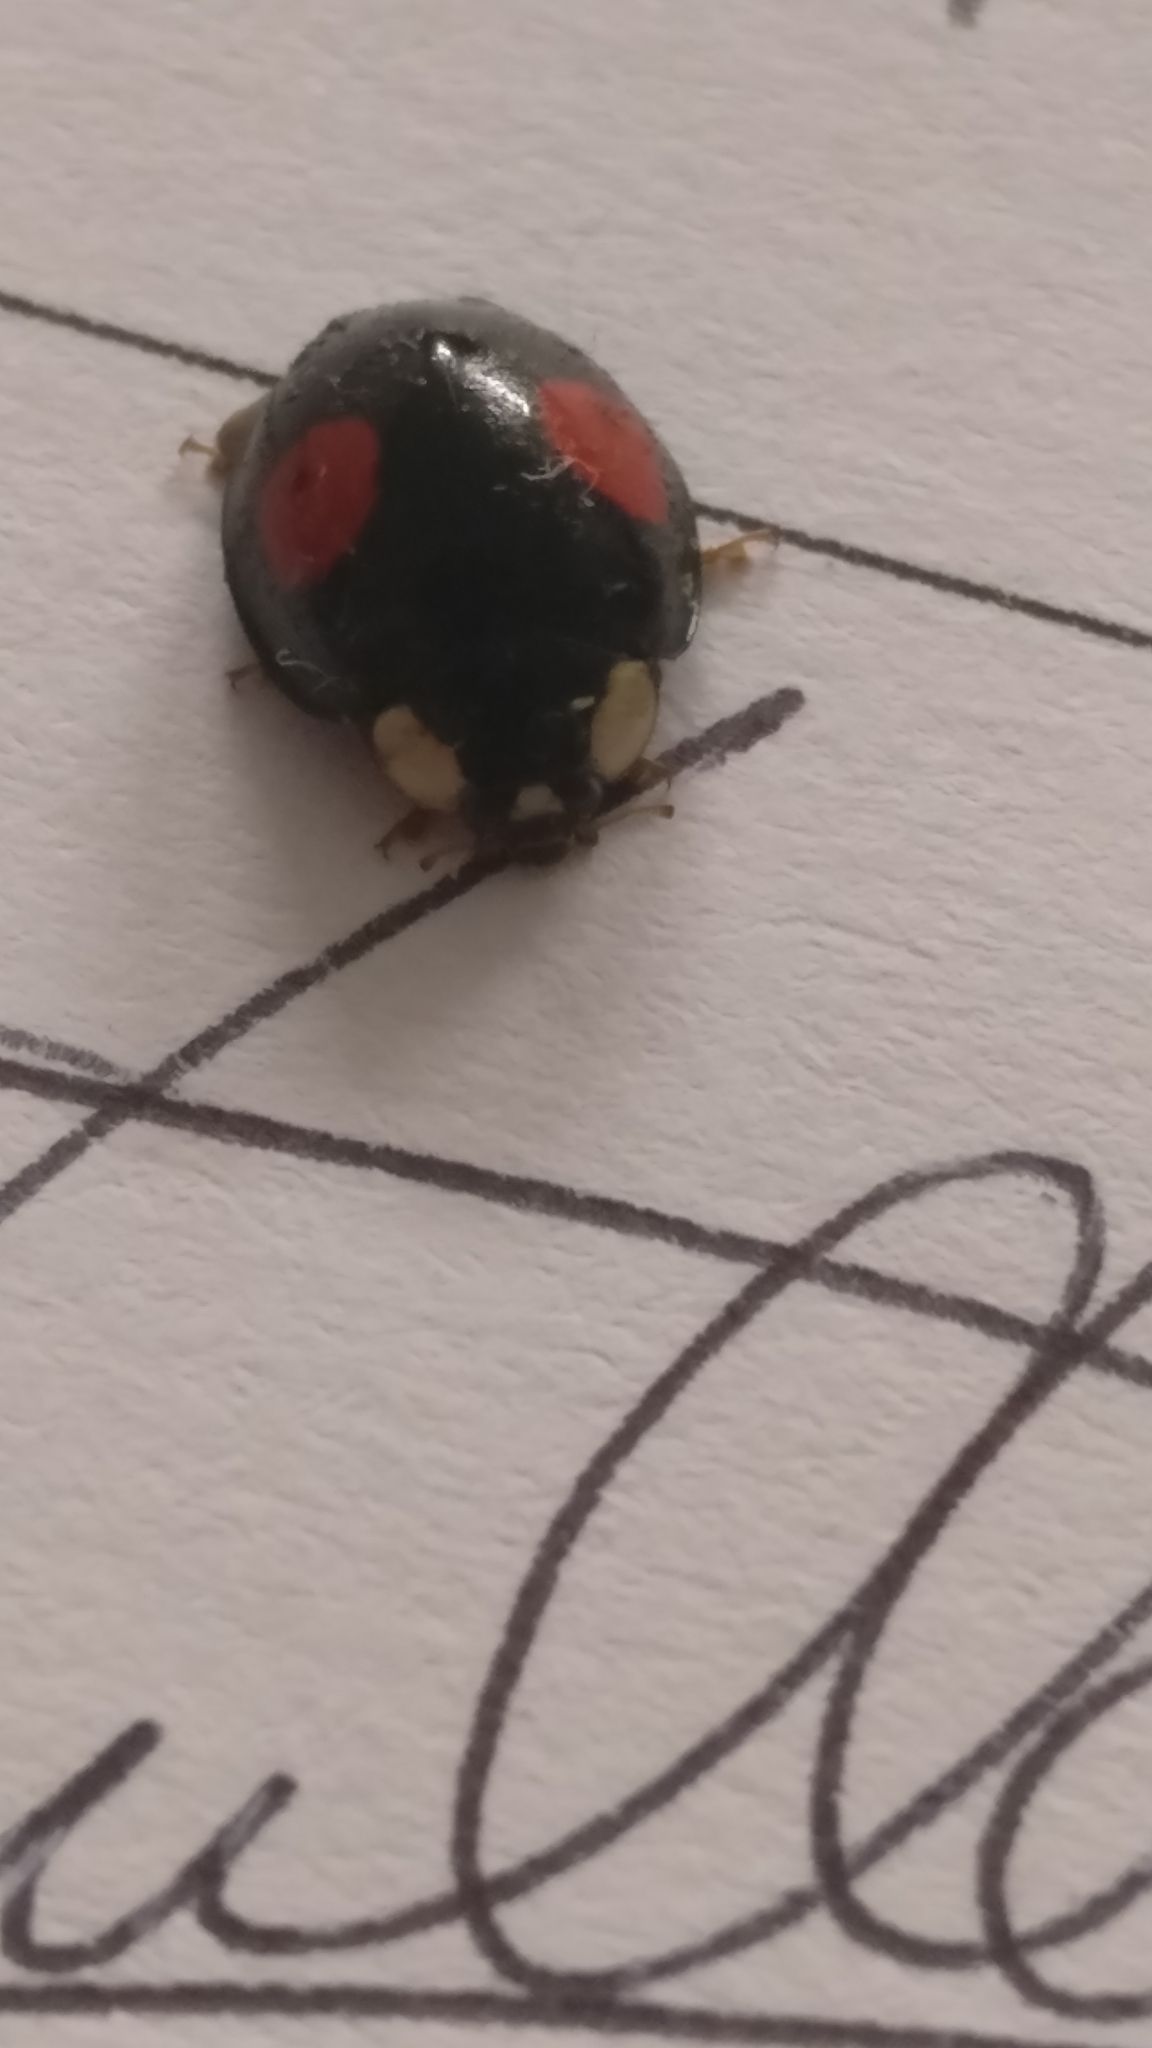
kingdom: Animalia
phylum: Arthropoda
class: Insecta
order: Coleoptera
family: Coccinellidae
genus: Harmonia
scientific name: Harmonia axyridis
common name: Harlequin ladybird
